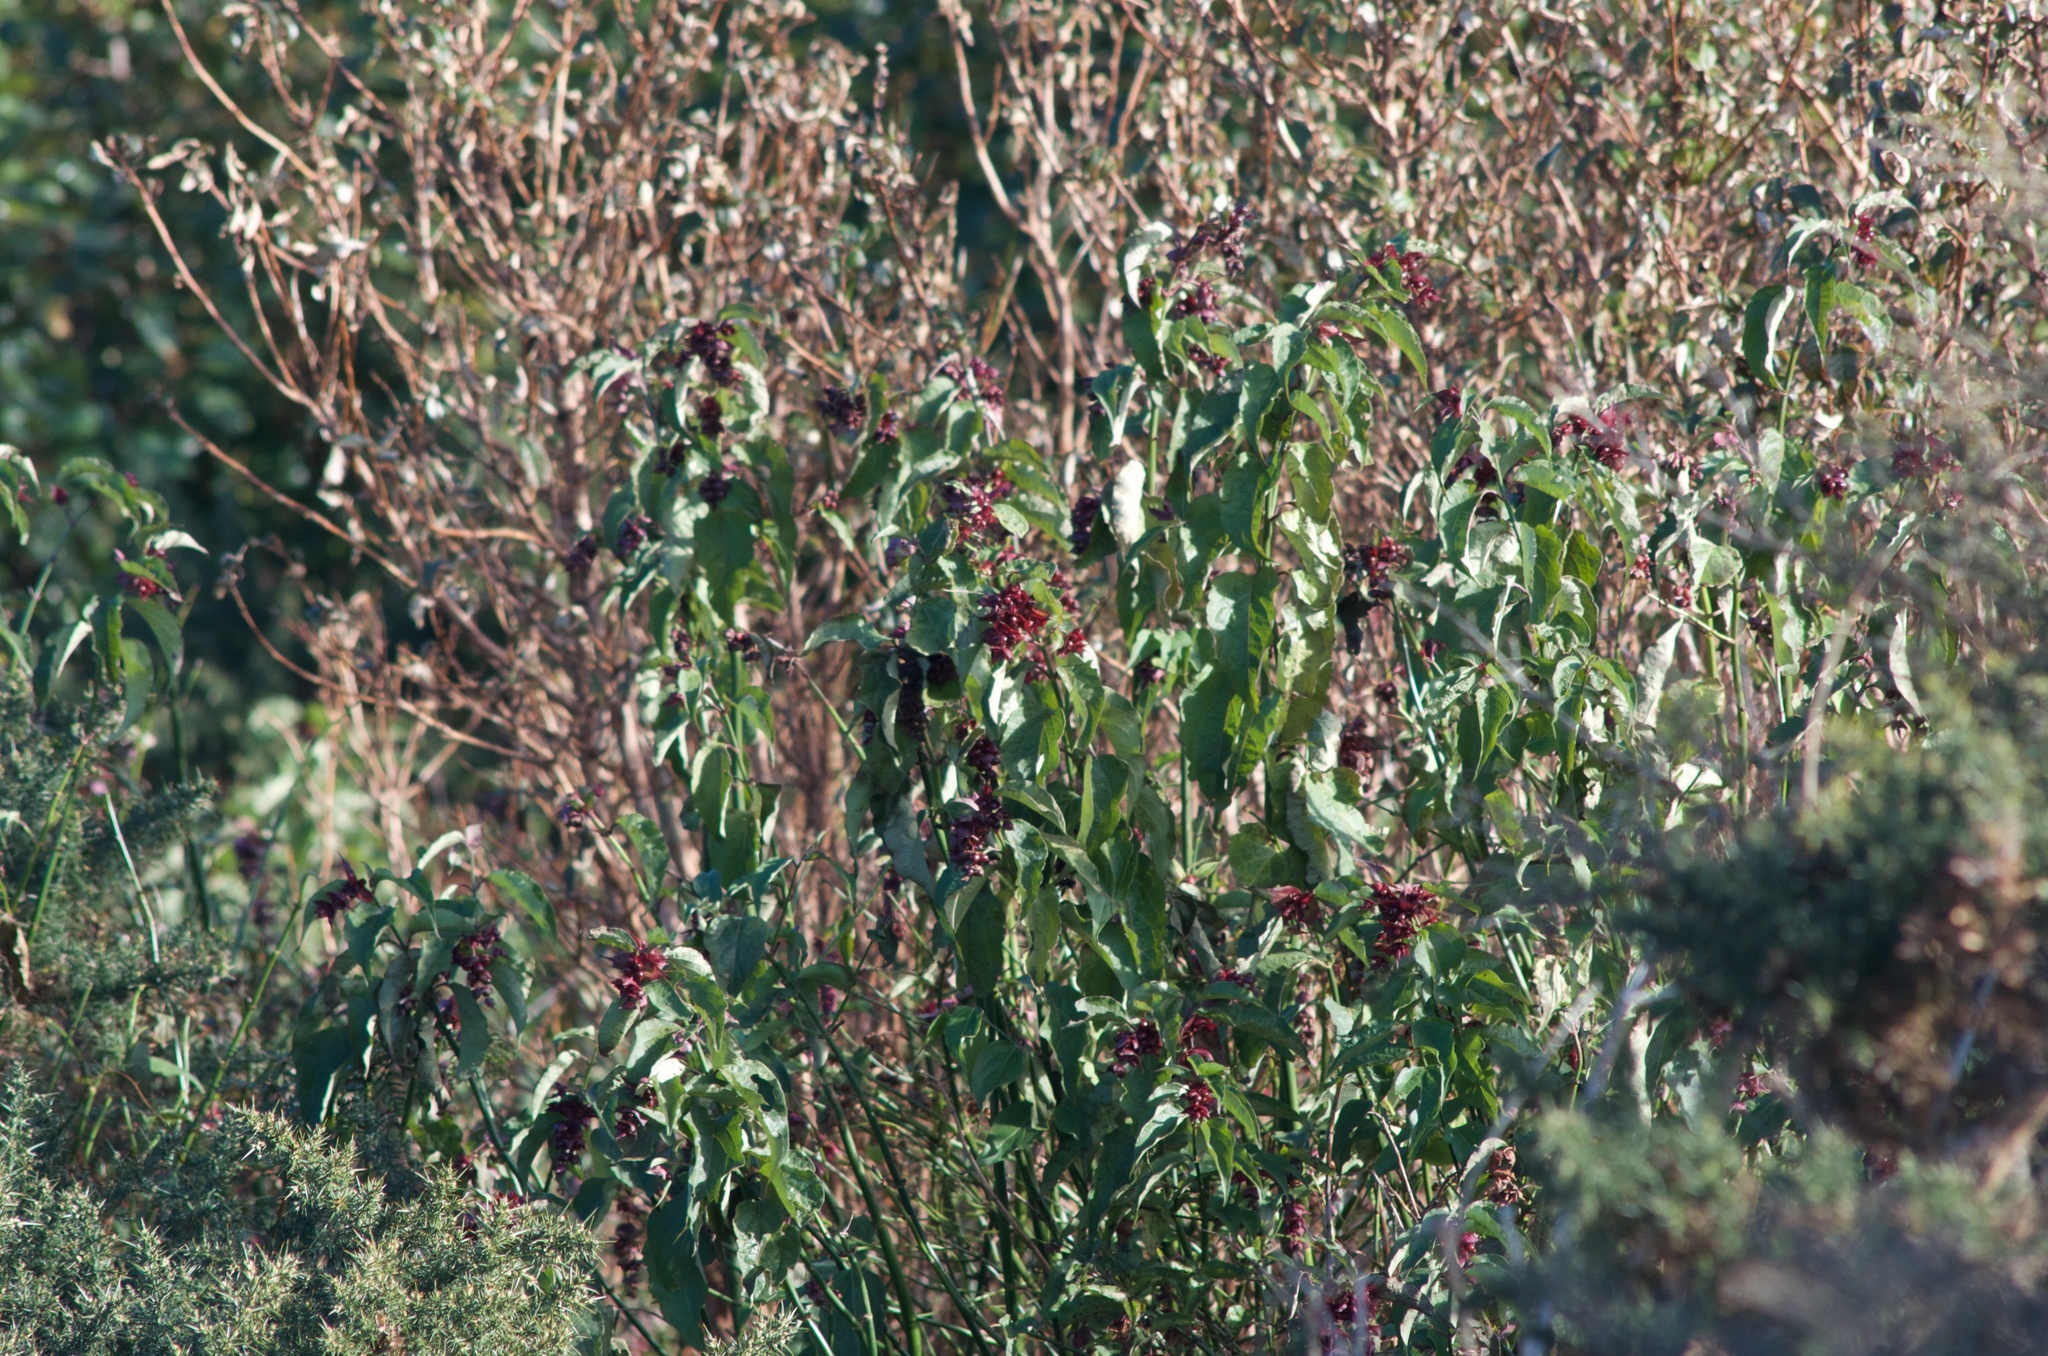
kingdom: Plantae
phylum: Tracheophyta
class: Magnoliopsida
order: Dipsacales
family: Caprifoliaceae
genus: Leycesteria
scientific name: Leycesteria formosa
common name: Himalayan honeysuckle
